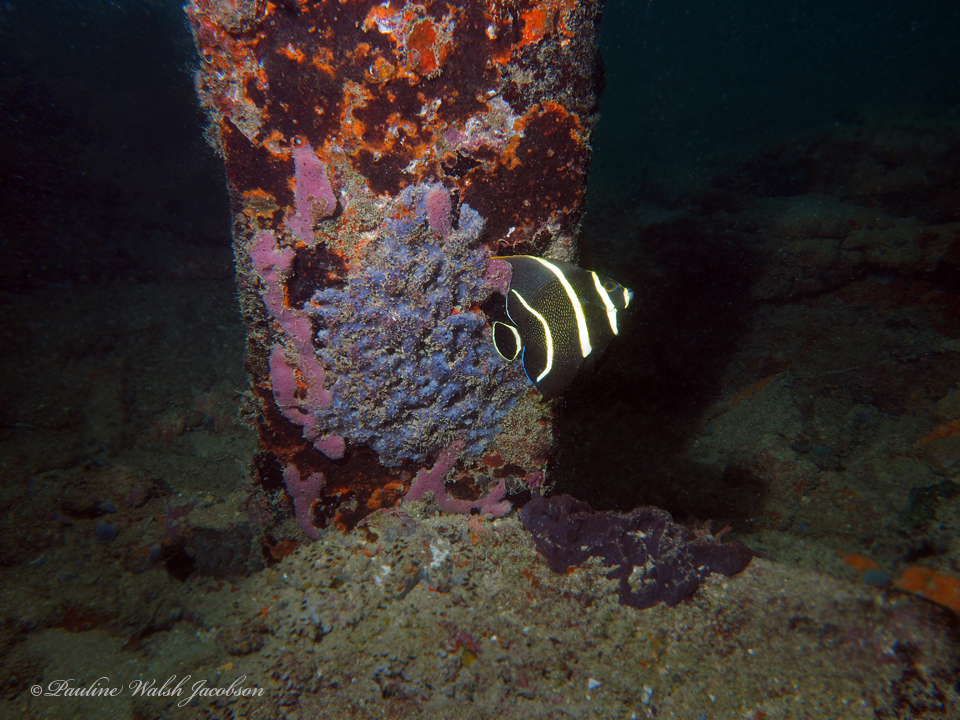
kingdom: Animalia
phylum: Chordata
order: Perciformes
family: Pomacanthidae
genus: Pomacanthus
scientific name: Pomacanthus paru
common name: French angelfish
